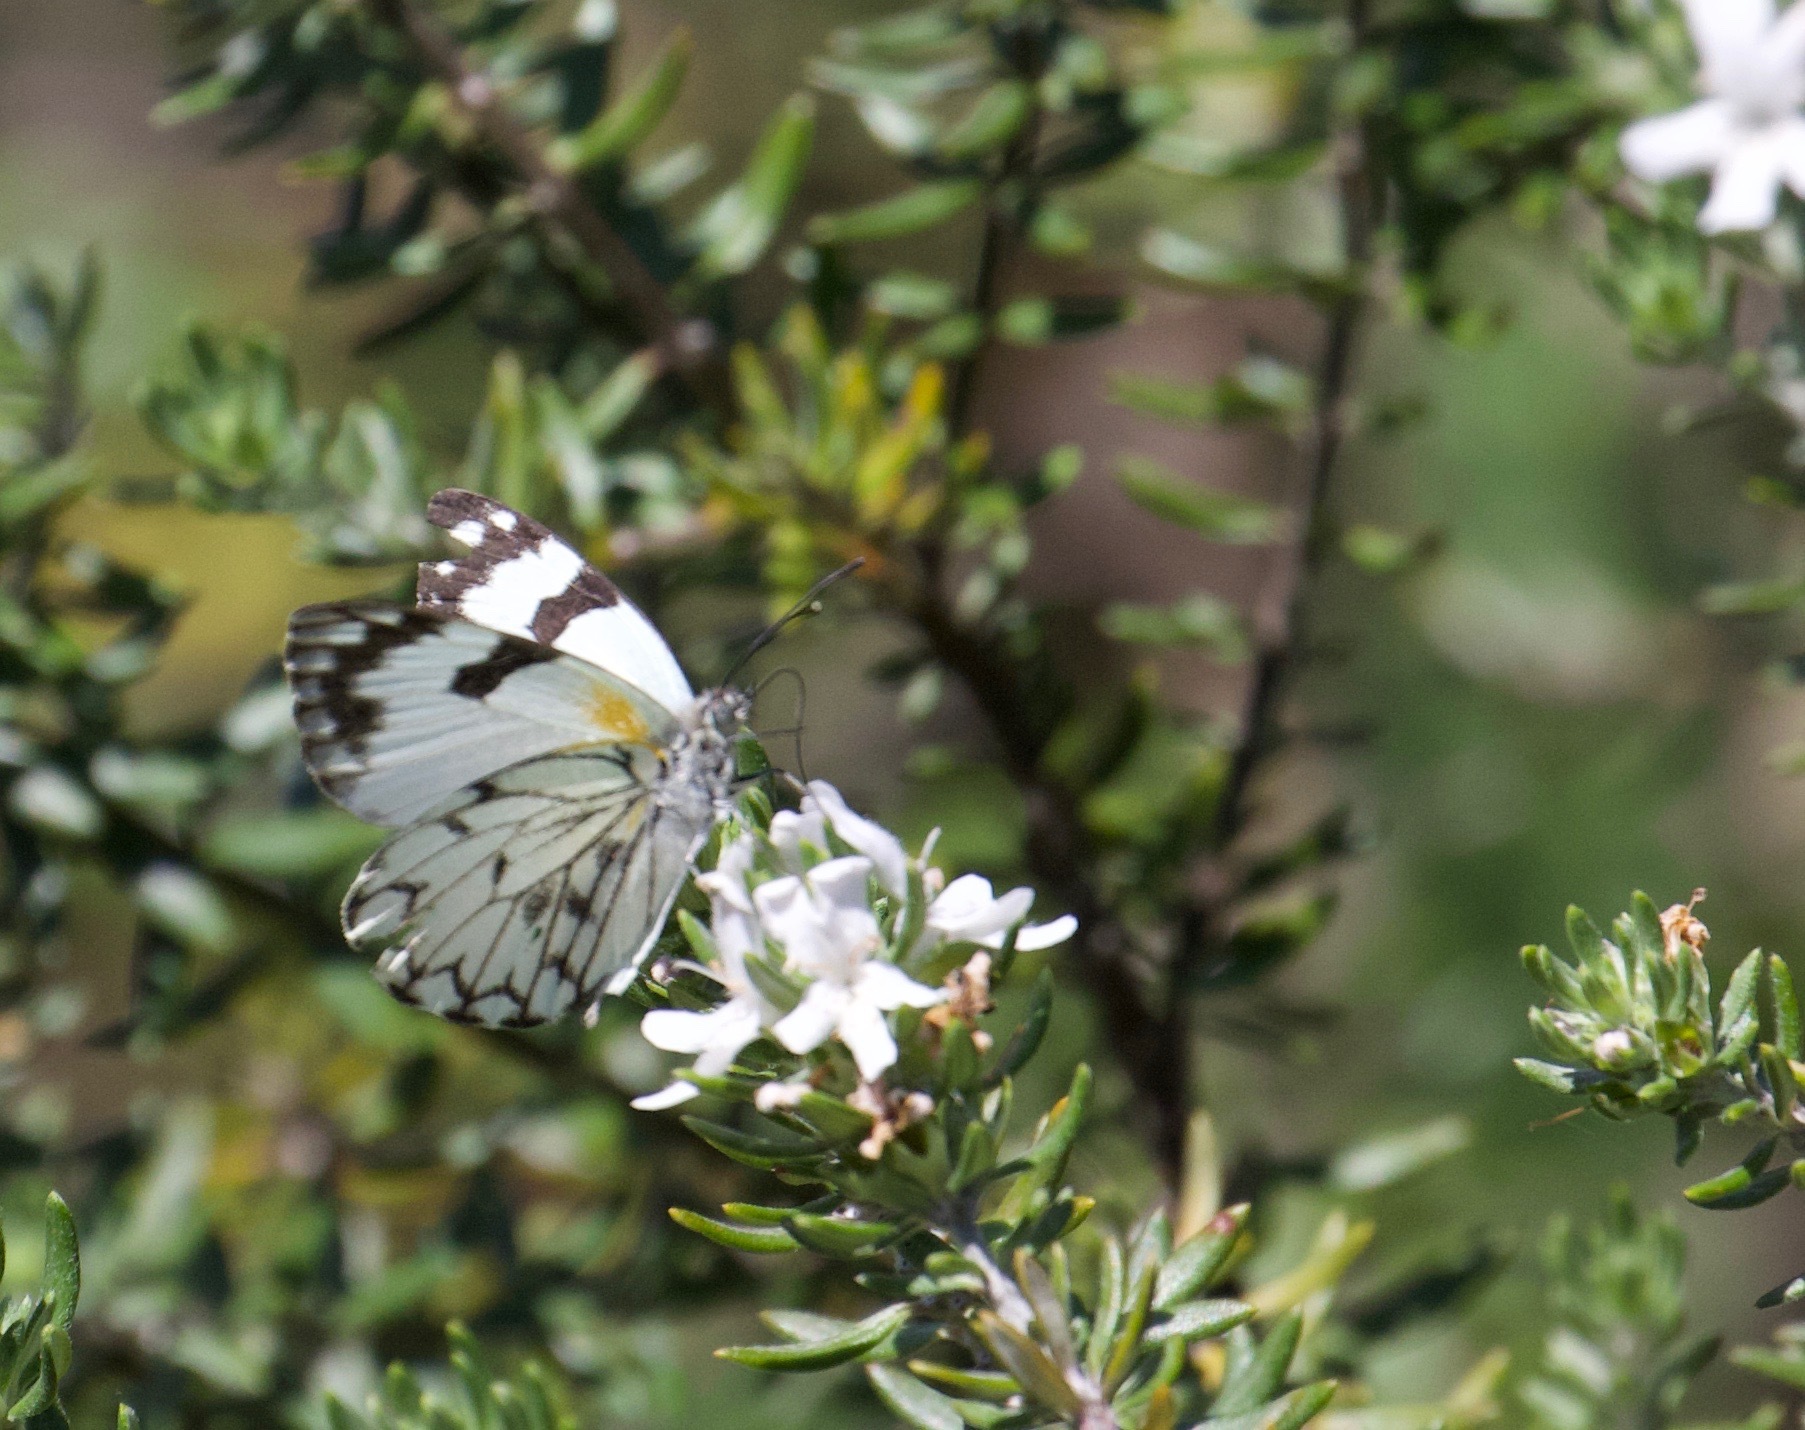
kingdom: Animalia
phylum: Arthropoda
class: Insecta
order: Lepidoptera
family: Pieridae
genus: Belenois
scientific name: Belenois zochalia
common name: Forest caper white
